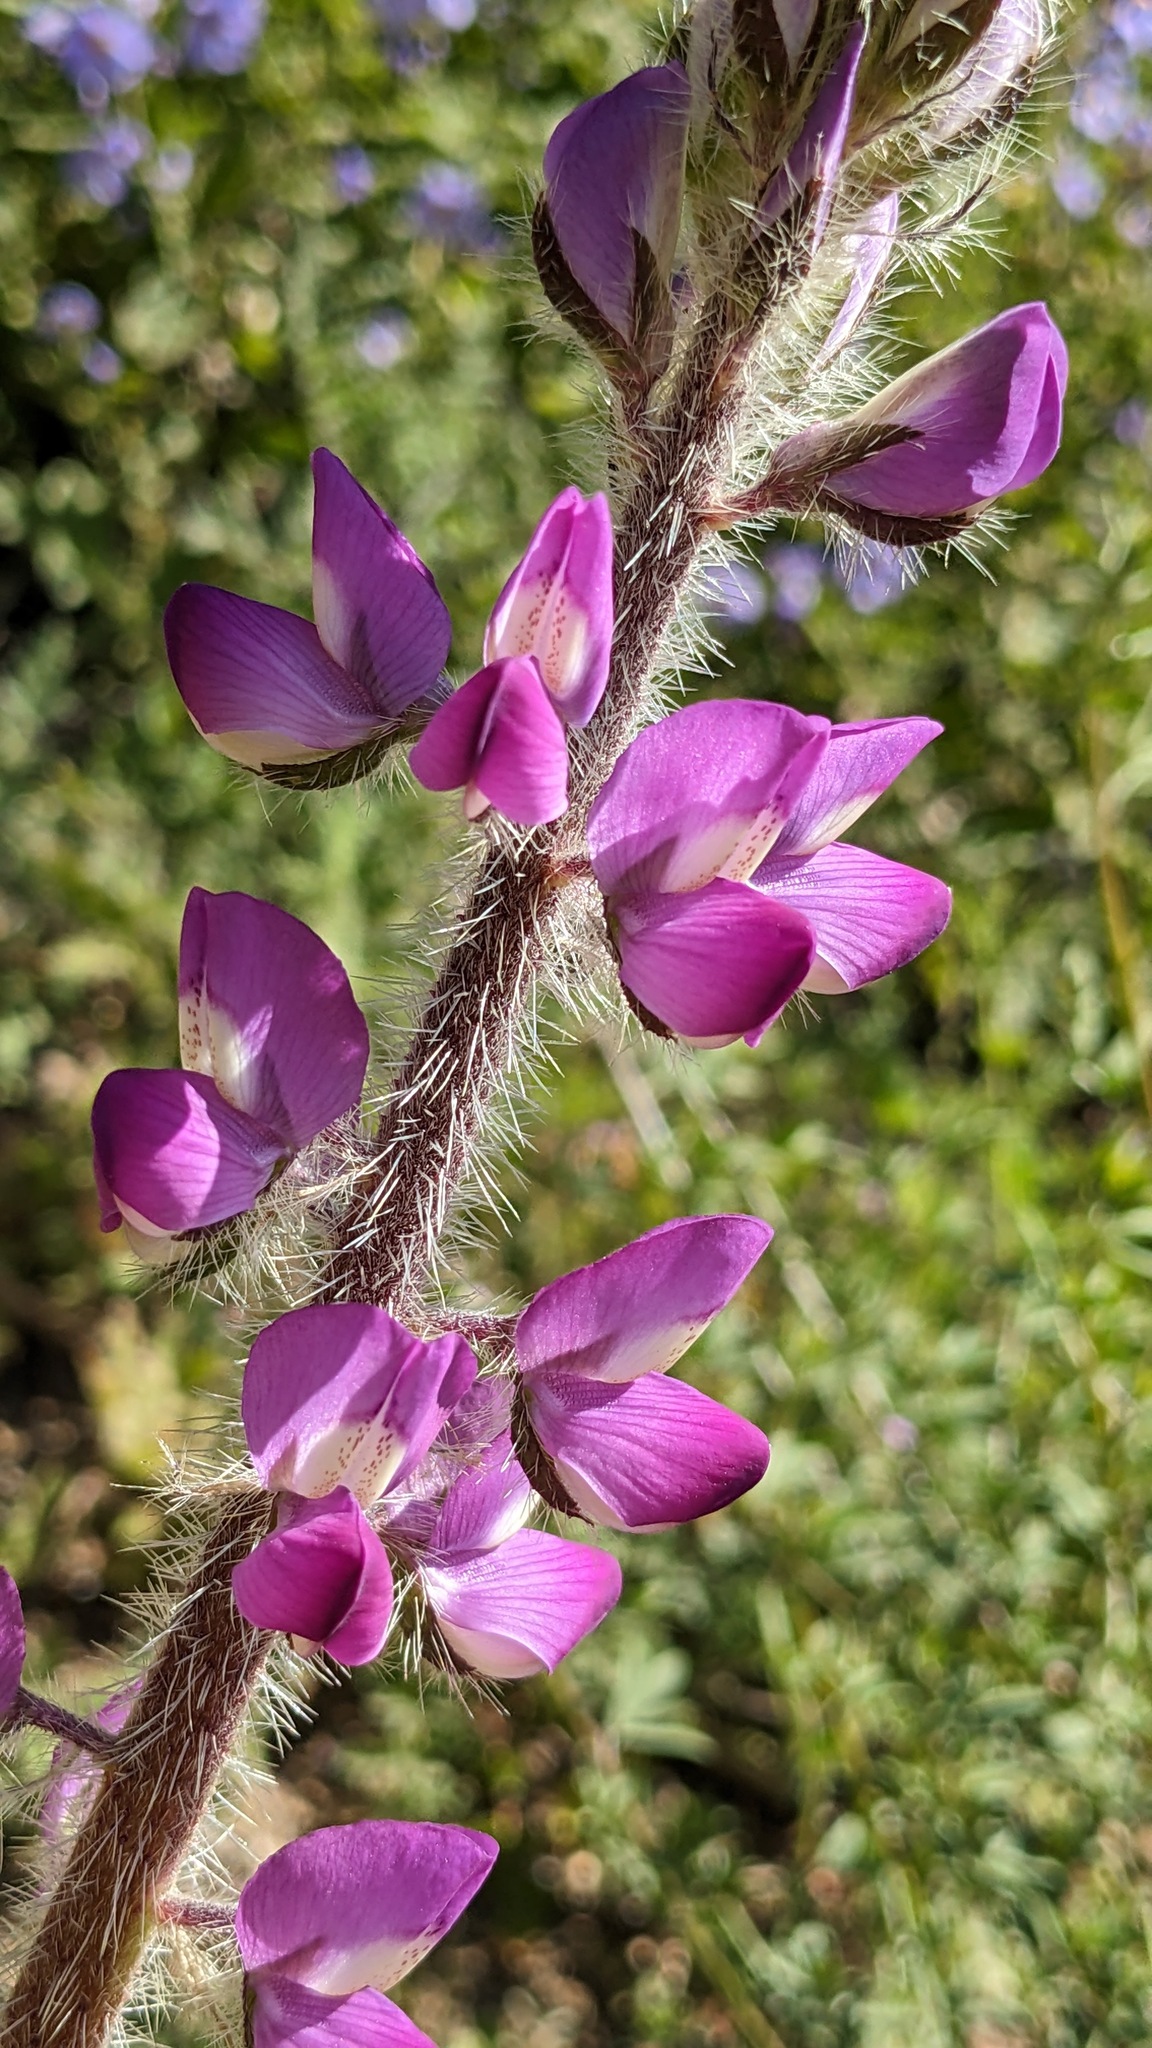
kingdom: Plantae
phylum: Tracheophyta
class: Magnoliopsida
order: Fabales
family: Fabaceae
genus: Lupinus
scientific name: Lupinus hirsutissimus
